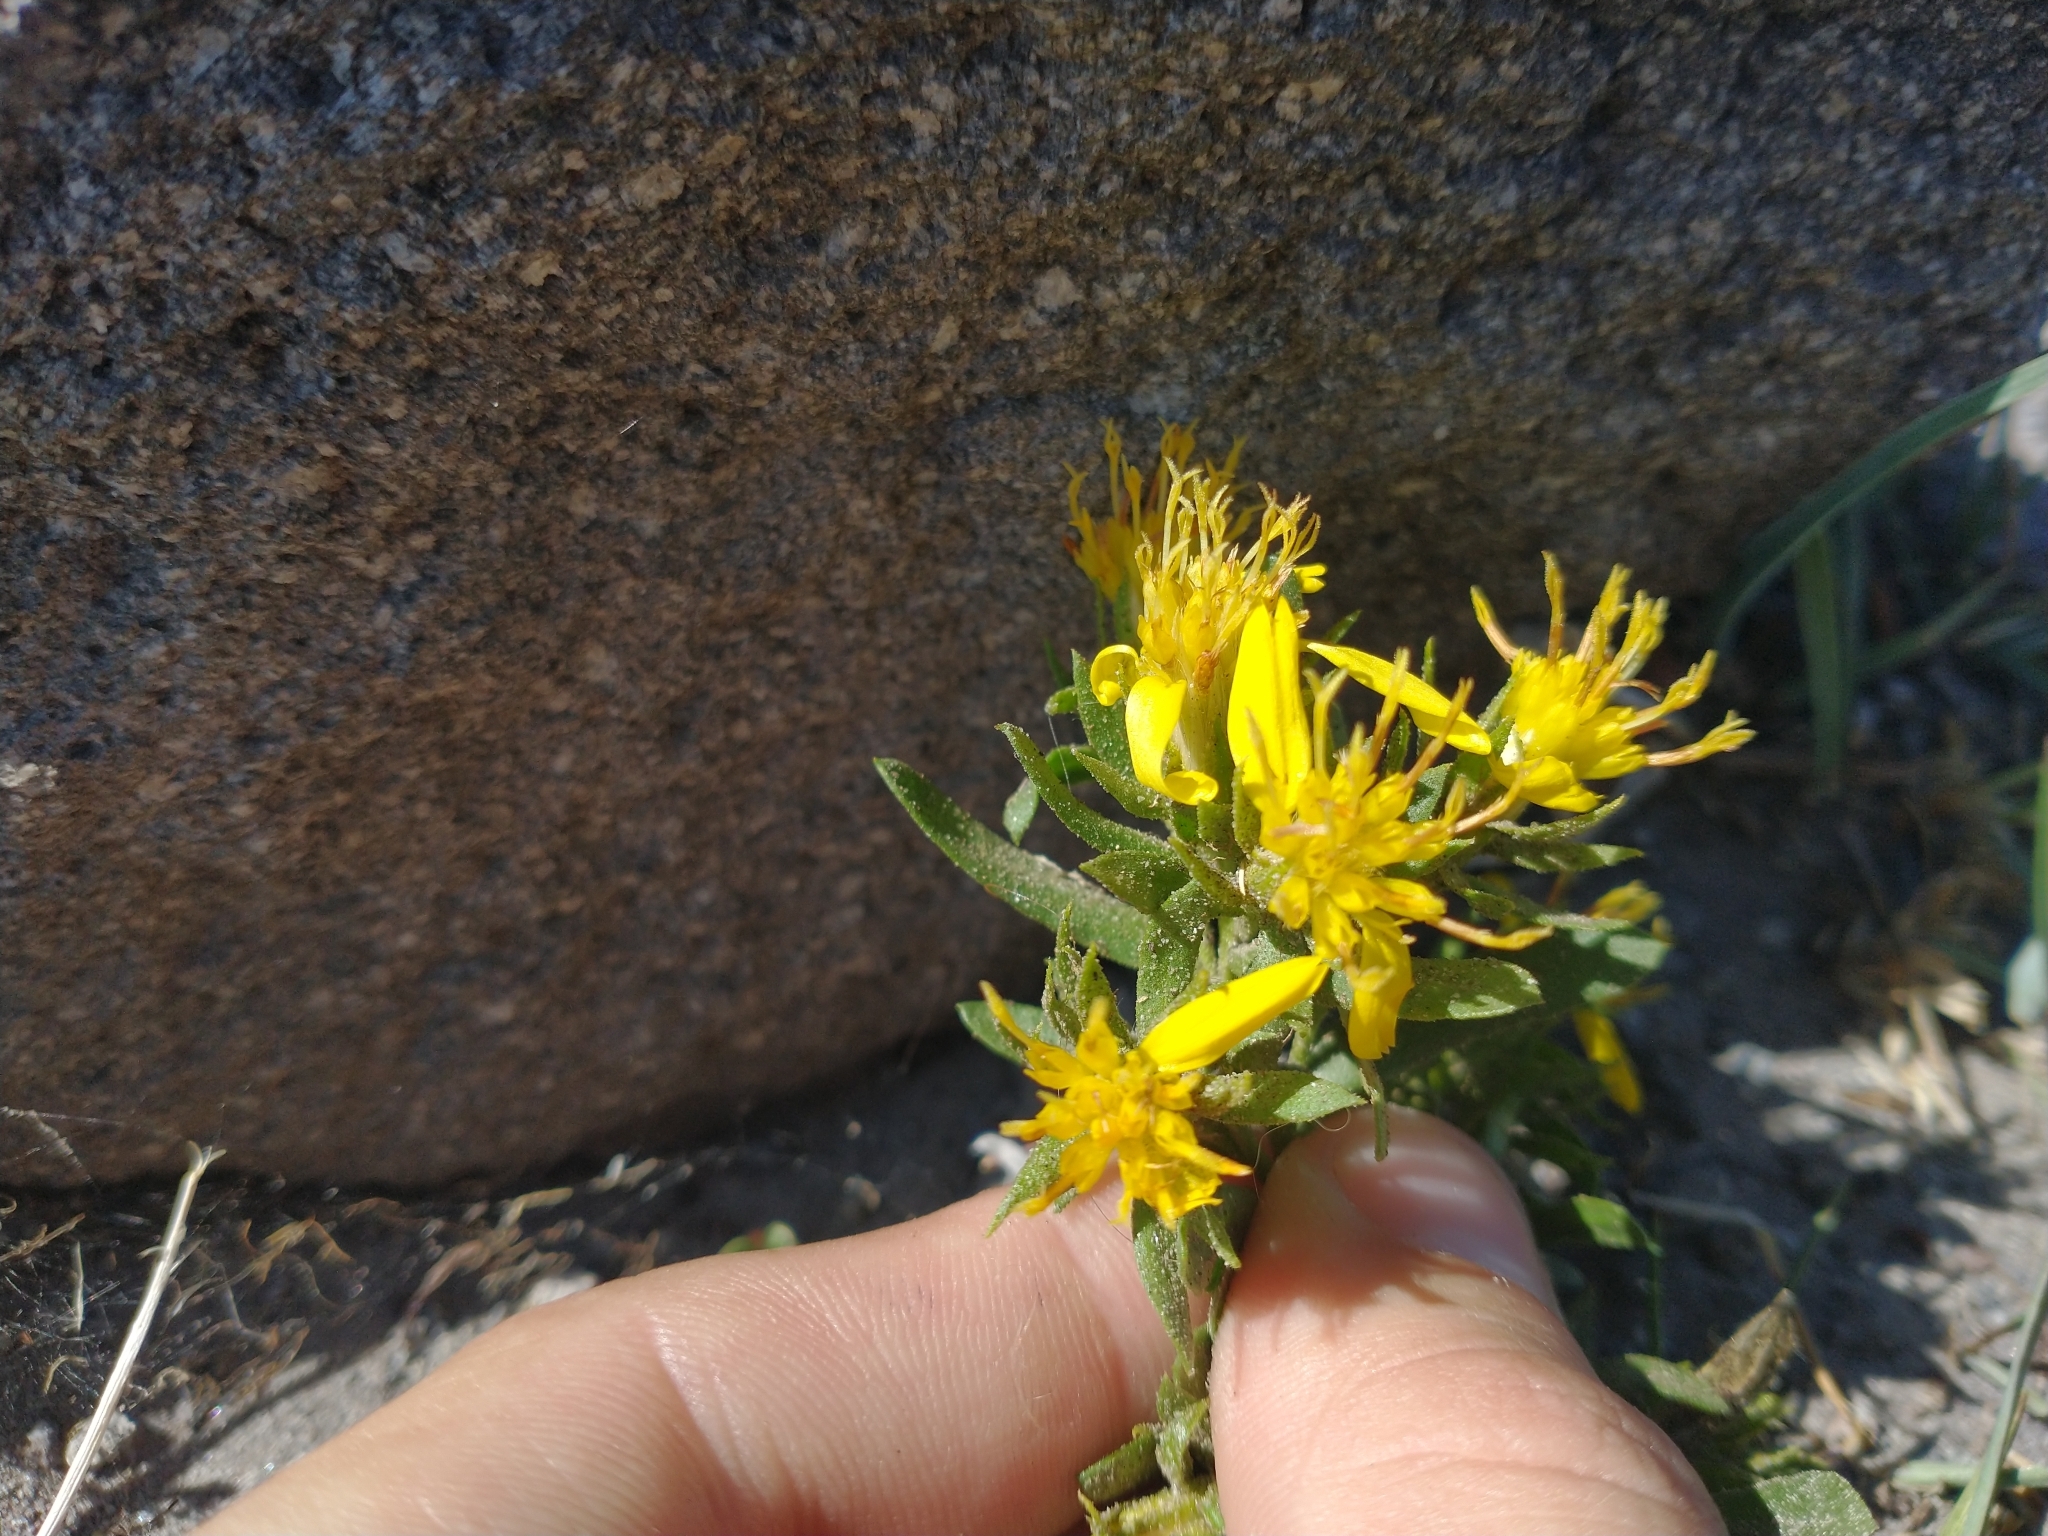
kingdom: Plantae
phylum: Tracheophyta
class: Magnoliopsida
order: Asterales
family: Asteraceae
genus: Ericameria
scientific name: Ericameria greenei
